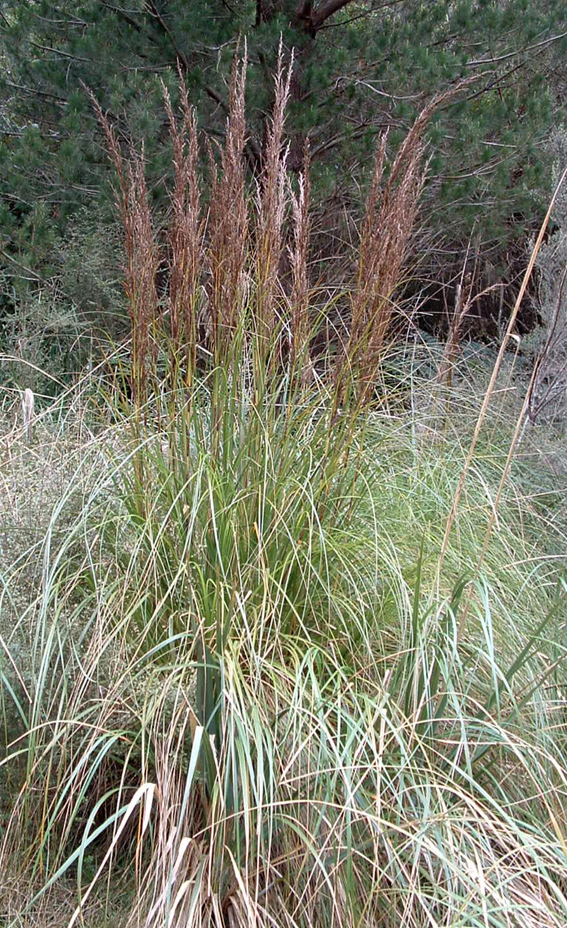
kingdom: Plantae
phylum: Tracheophyta
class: Liliopsida
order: Poales
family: Cyperaceae
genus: Gahnia
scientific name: Gahnia rigida
